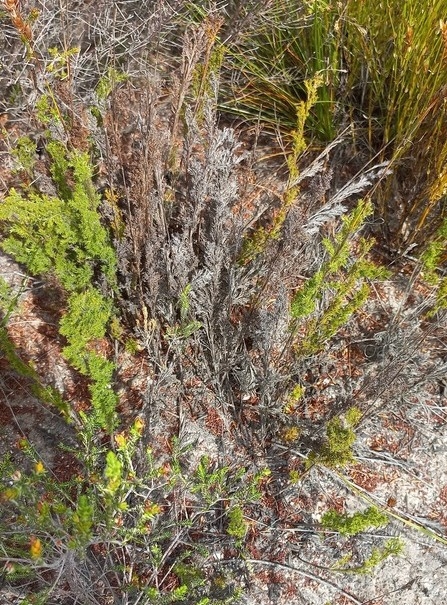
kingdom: Plantae
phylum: Tracheophyta
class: Liliopsida
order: Poales
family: Restionaceae
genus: Thamnochortus
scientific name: Thamnochortus fruticosus
